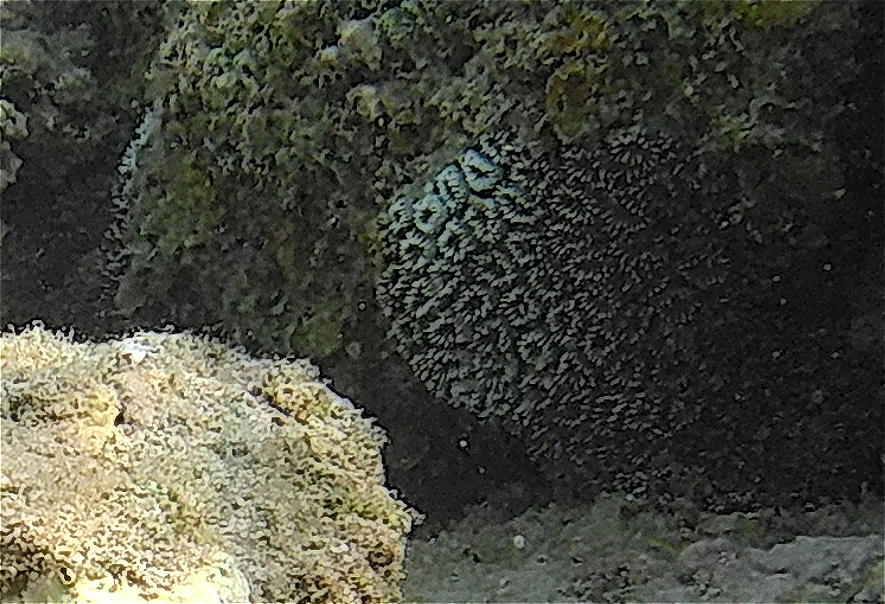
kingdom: Animalia
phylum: Cnidaria
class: Anthozoa
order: Scleractinia
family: Euphylliidae
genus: Galaxea
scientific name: Galaxea fascicularis
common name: Octopus coral
